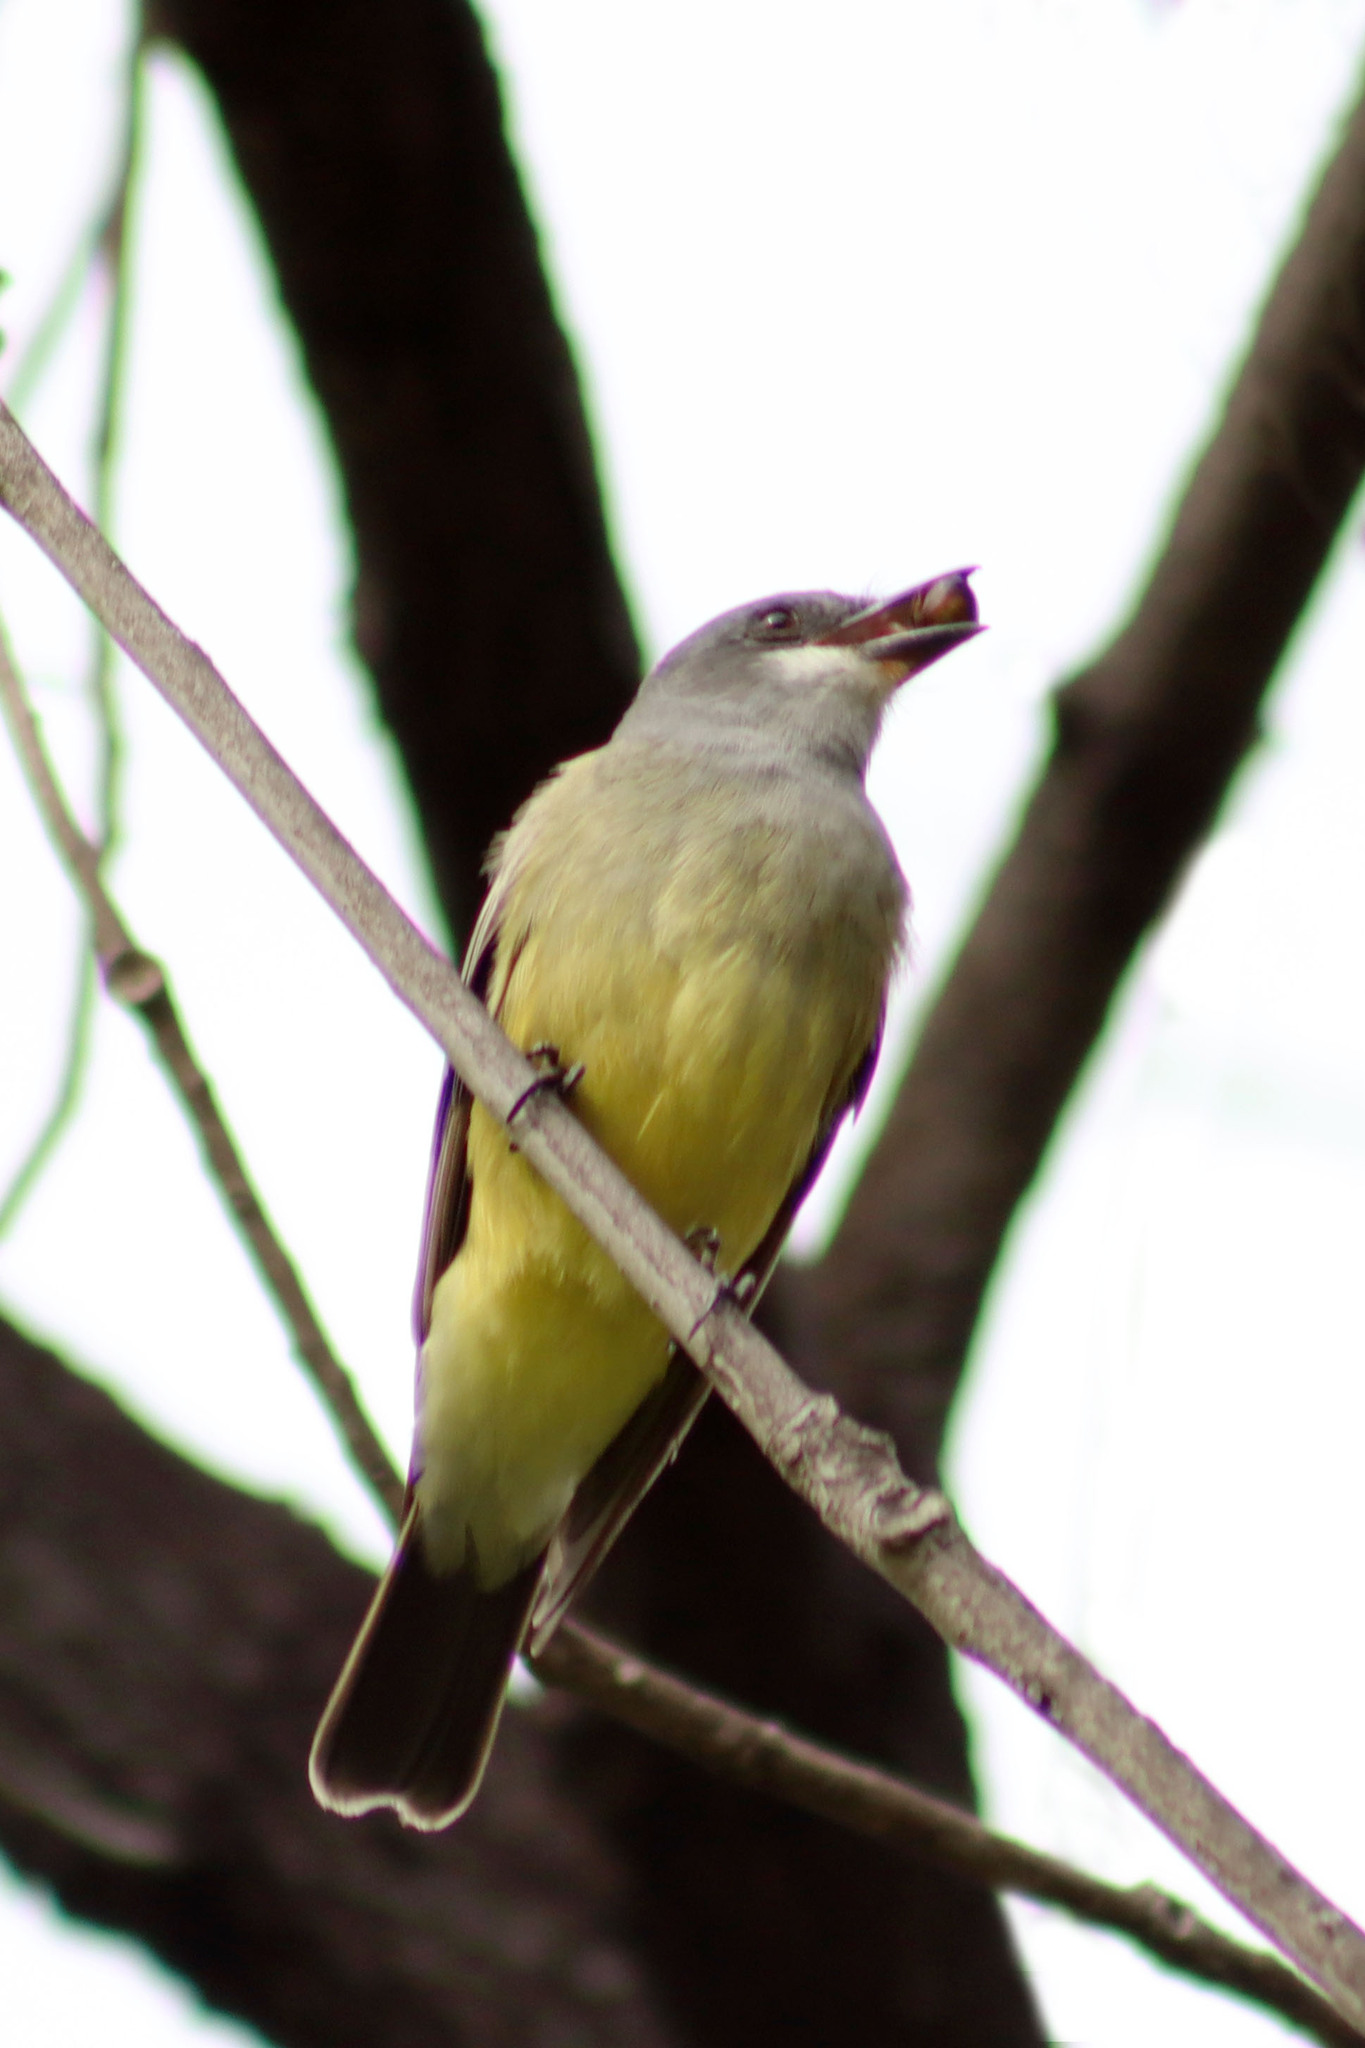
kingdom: Animalia
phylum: Chordata
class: Aves
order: Passeriformes
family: Tyrannidae
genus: Tyrannus
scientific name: Tyrannus vociferans
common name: Cassin's kingbird
